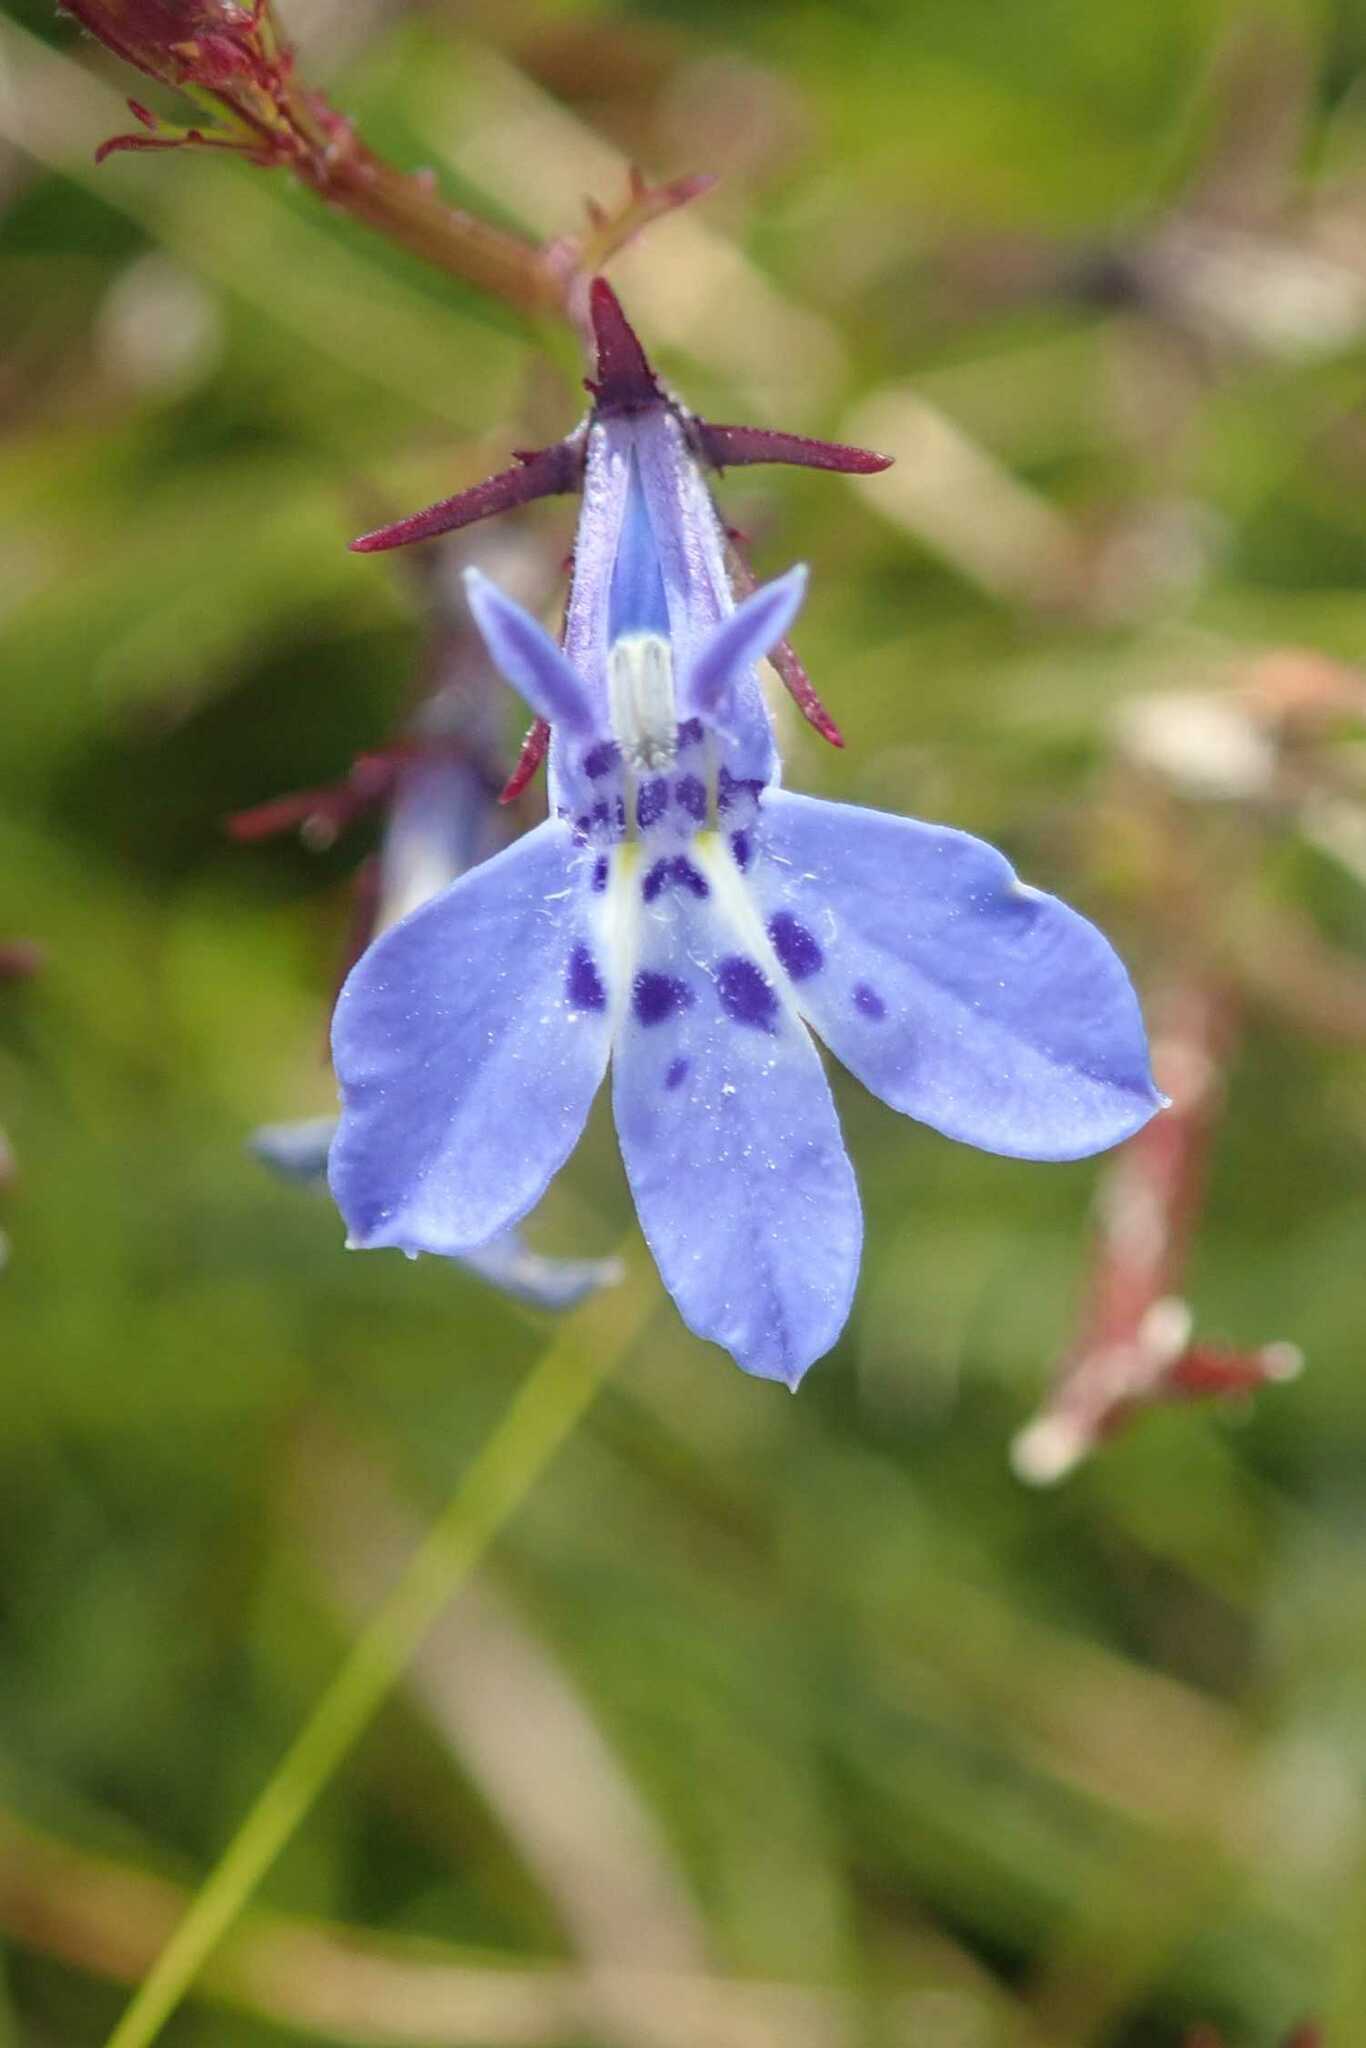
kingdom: Plantae
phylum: Tracheophyta
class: Magnoliopsida
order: Asterales
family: Campanulaceae
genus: Lobelia
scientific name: Lobelia flaccida
